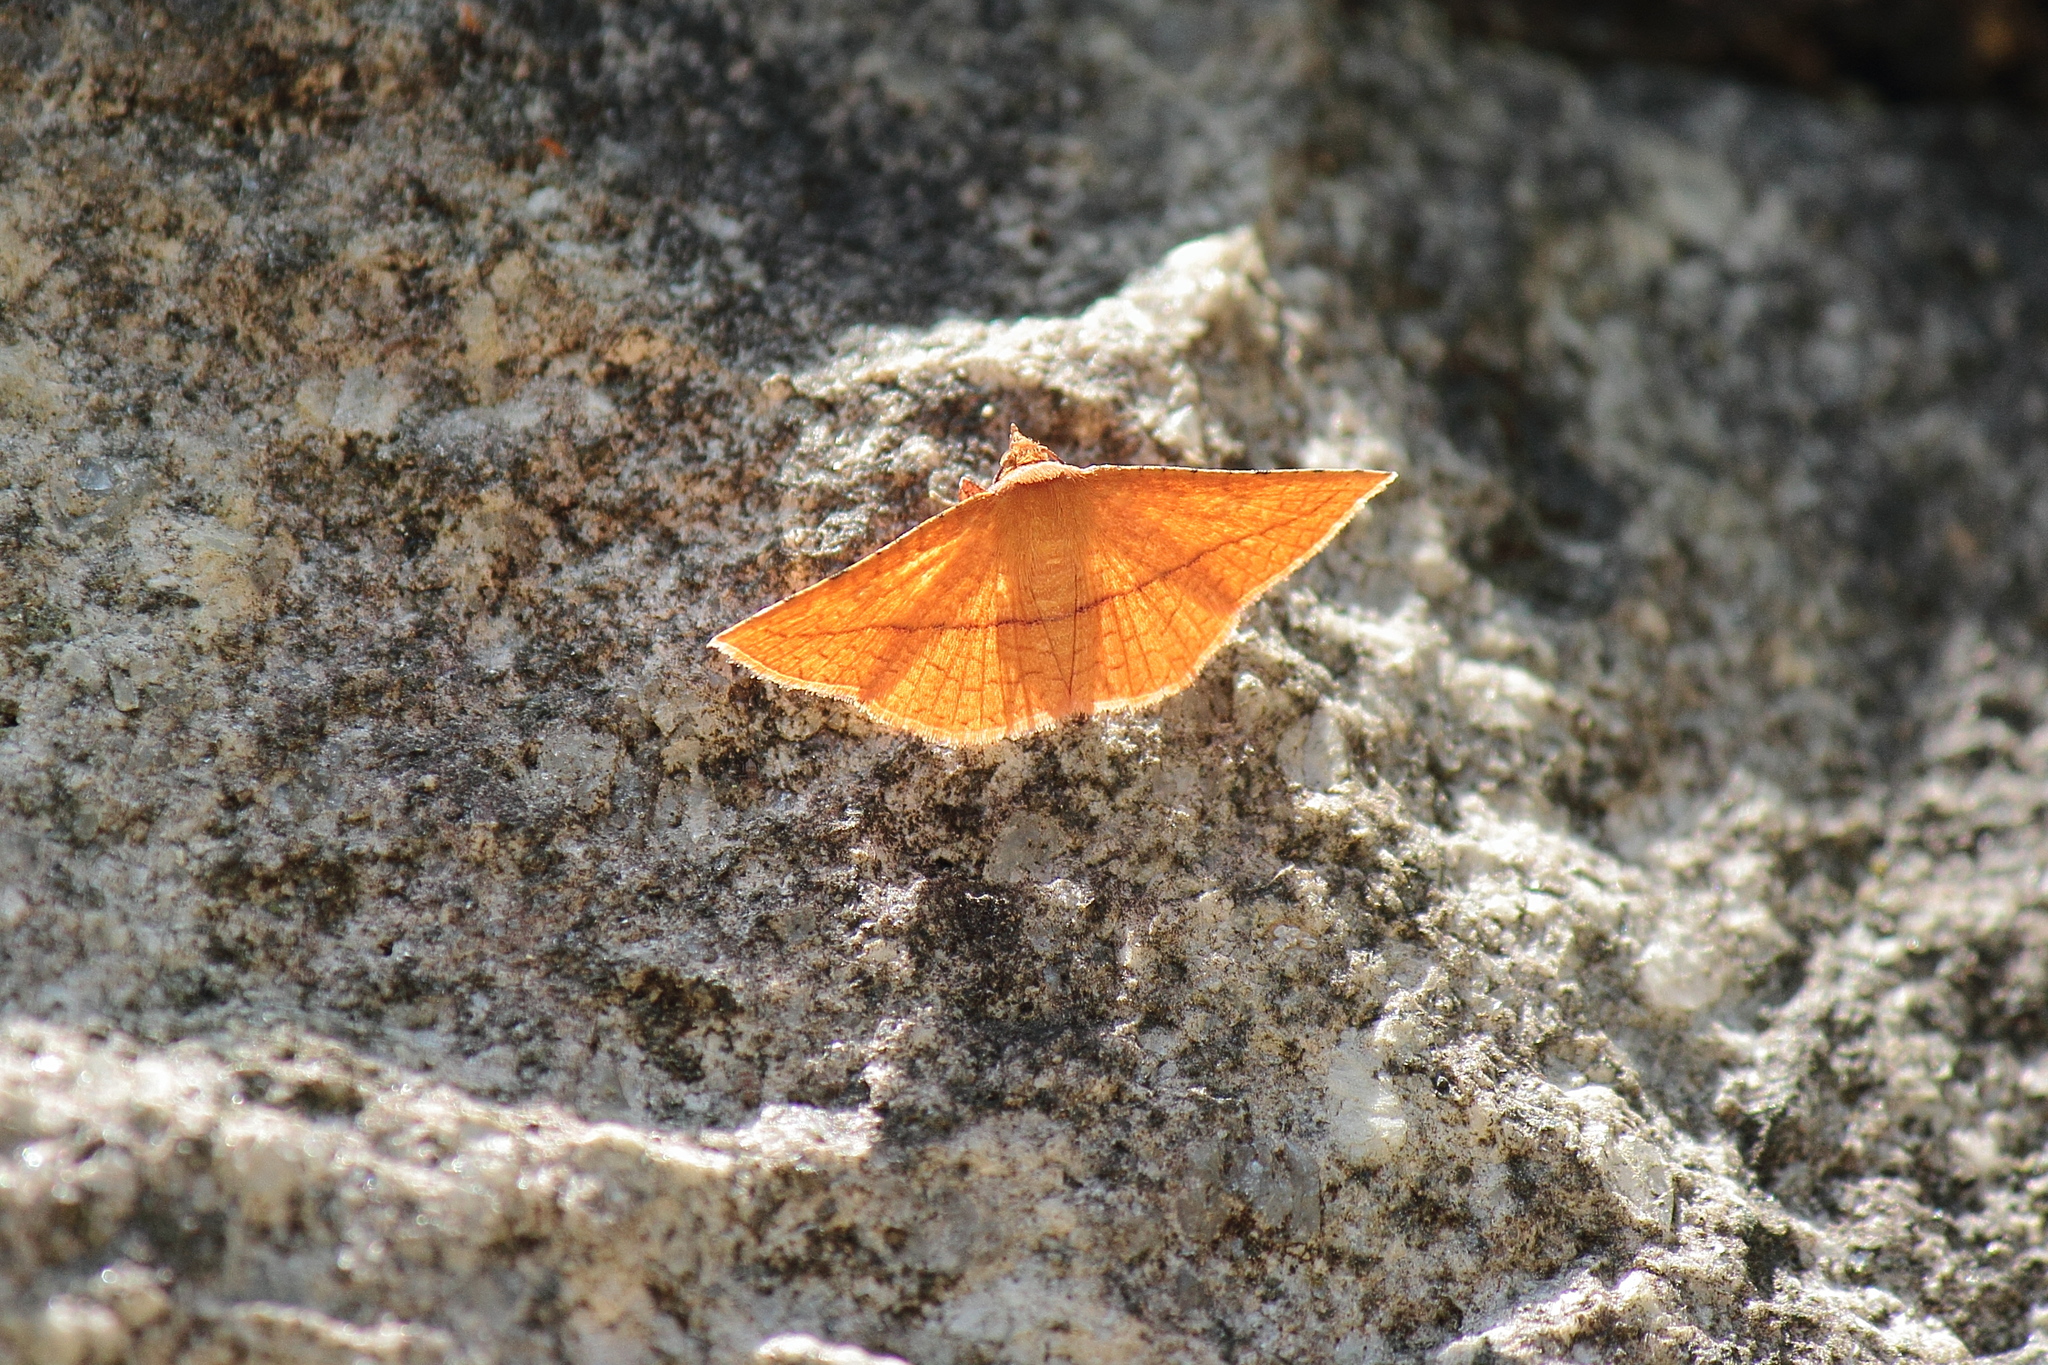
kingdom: Animalia
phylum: Arthropoda
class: Insecta
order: Lepidoptera
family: Thyrididae
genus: Striglina
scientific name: Striglina cancellata
